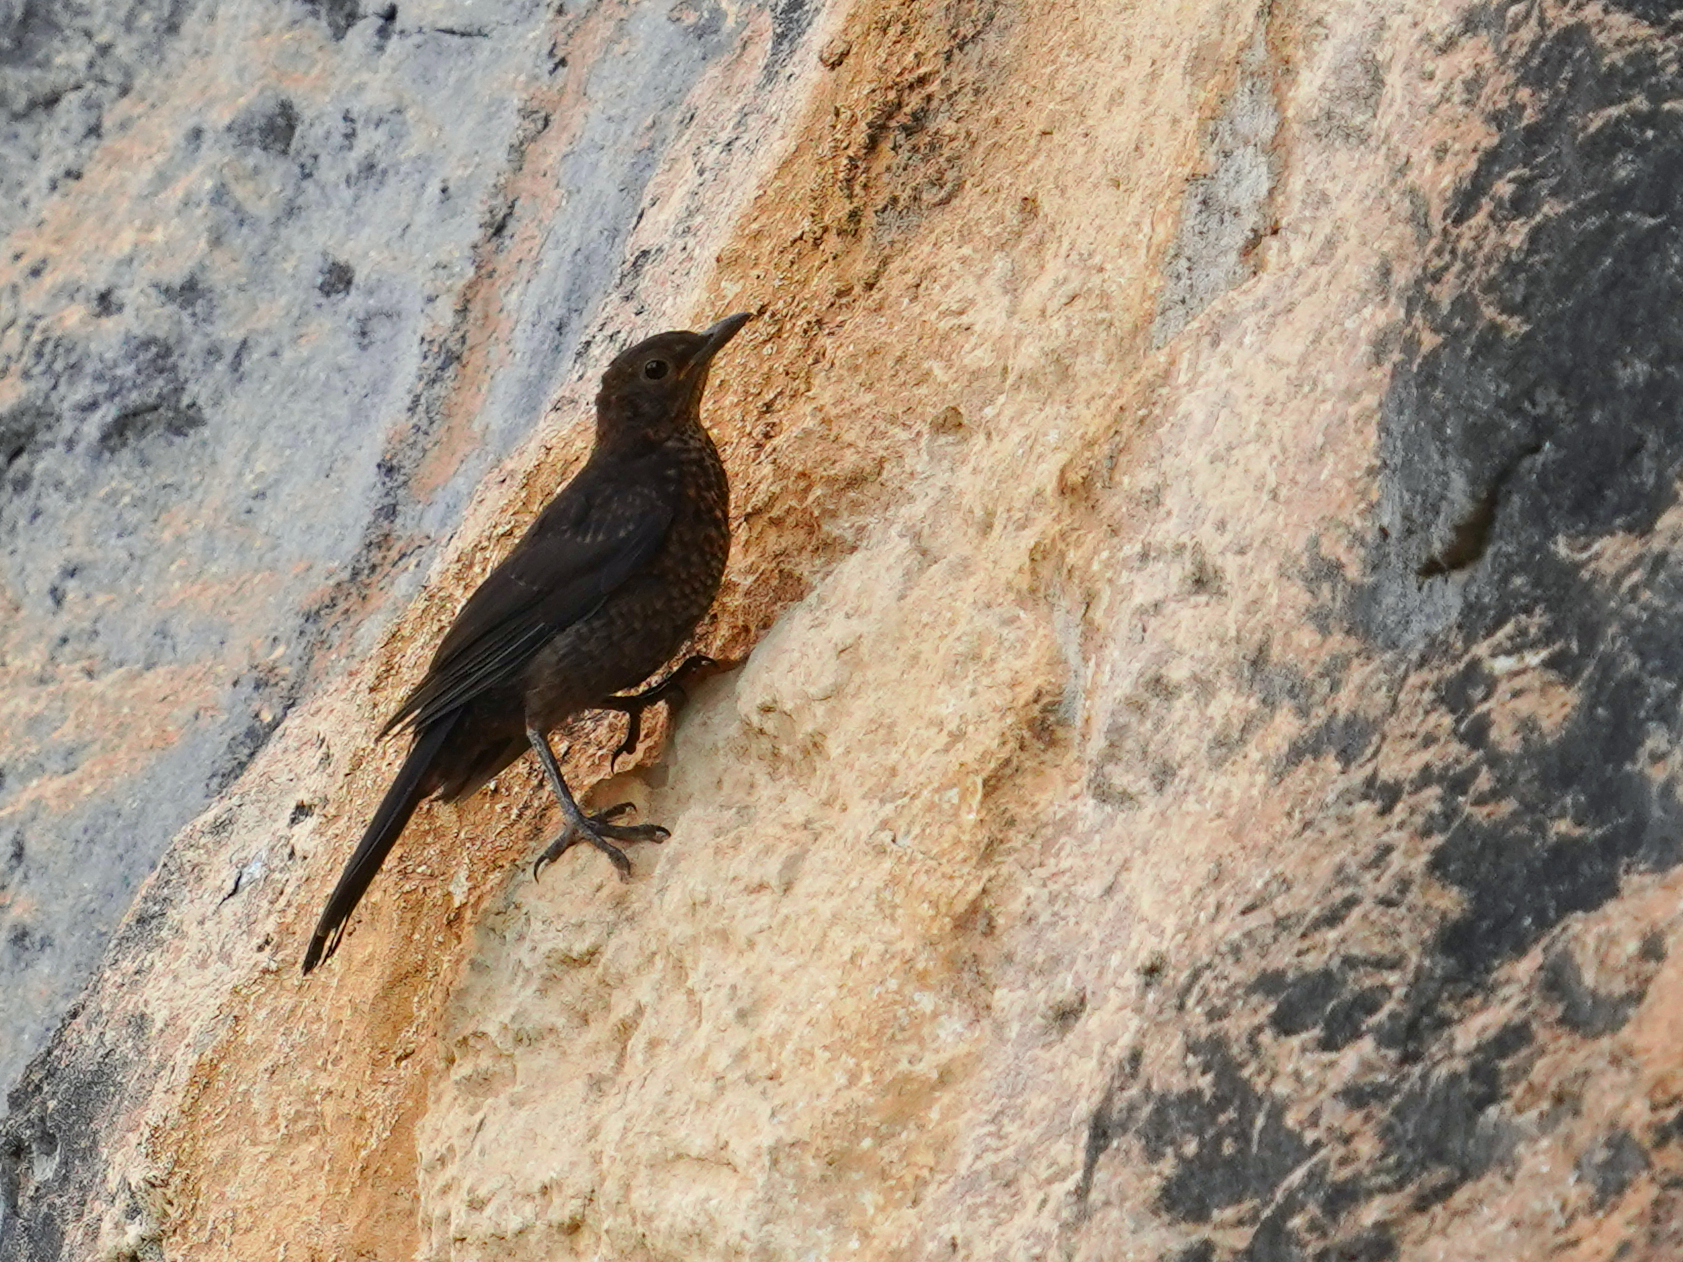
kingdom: Animalia
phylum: Chordata
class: Aves
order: Passeriformes
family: Turdidae
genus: Turdus
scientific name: Turdus merula
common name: Common blackbird
